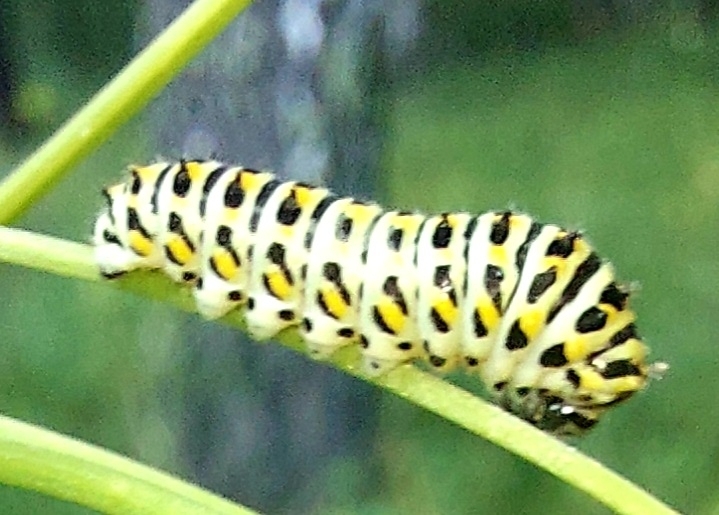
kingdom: Animalia
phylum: Arthropoda
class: Insecta
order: Lepidoptera
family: Papilionidae
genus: Papilio
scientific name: Papilio machaon
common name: Swallowtail
